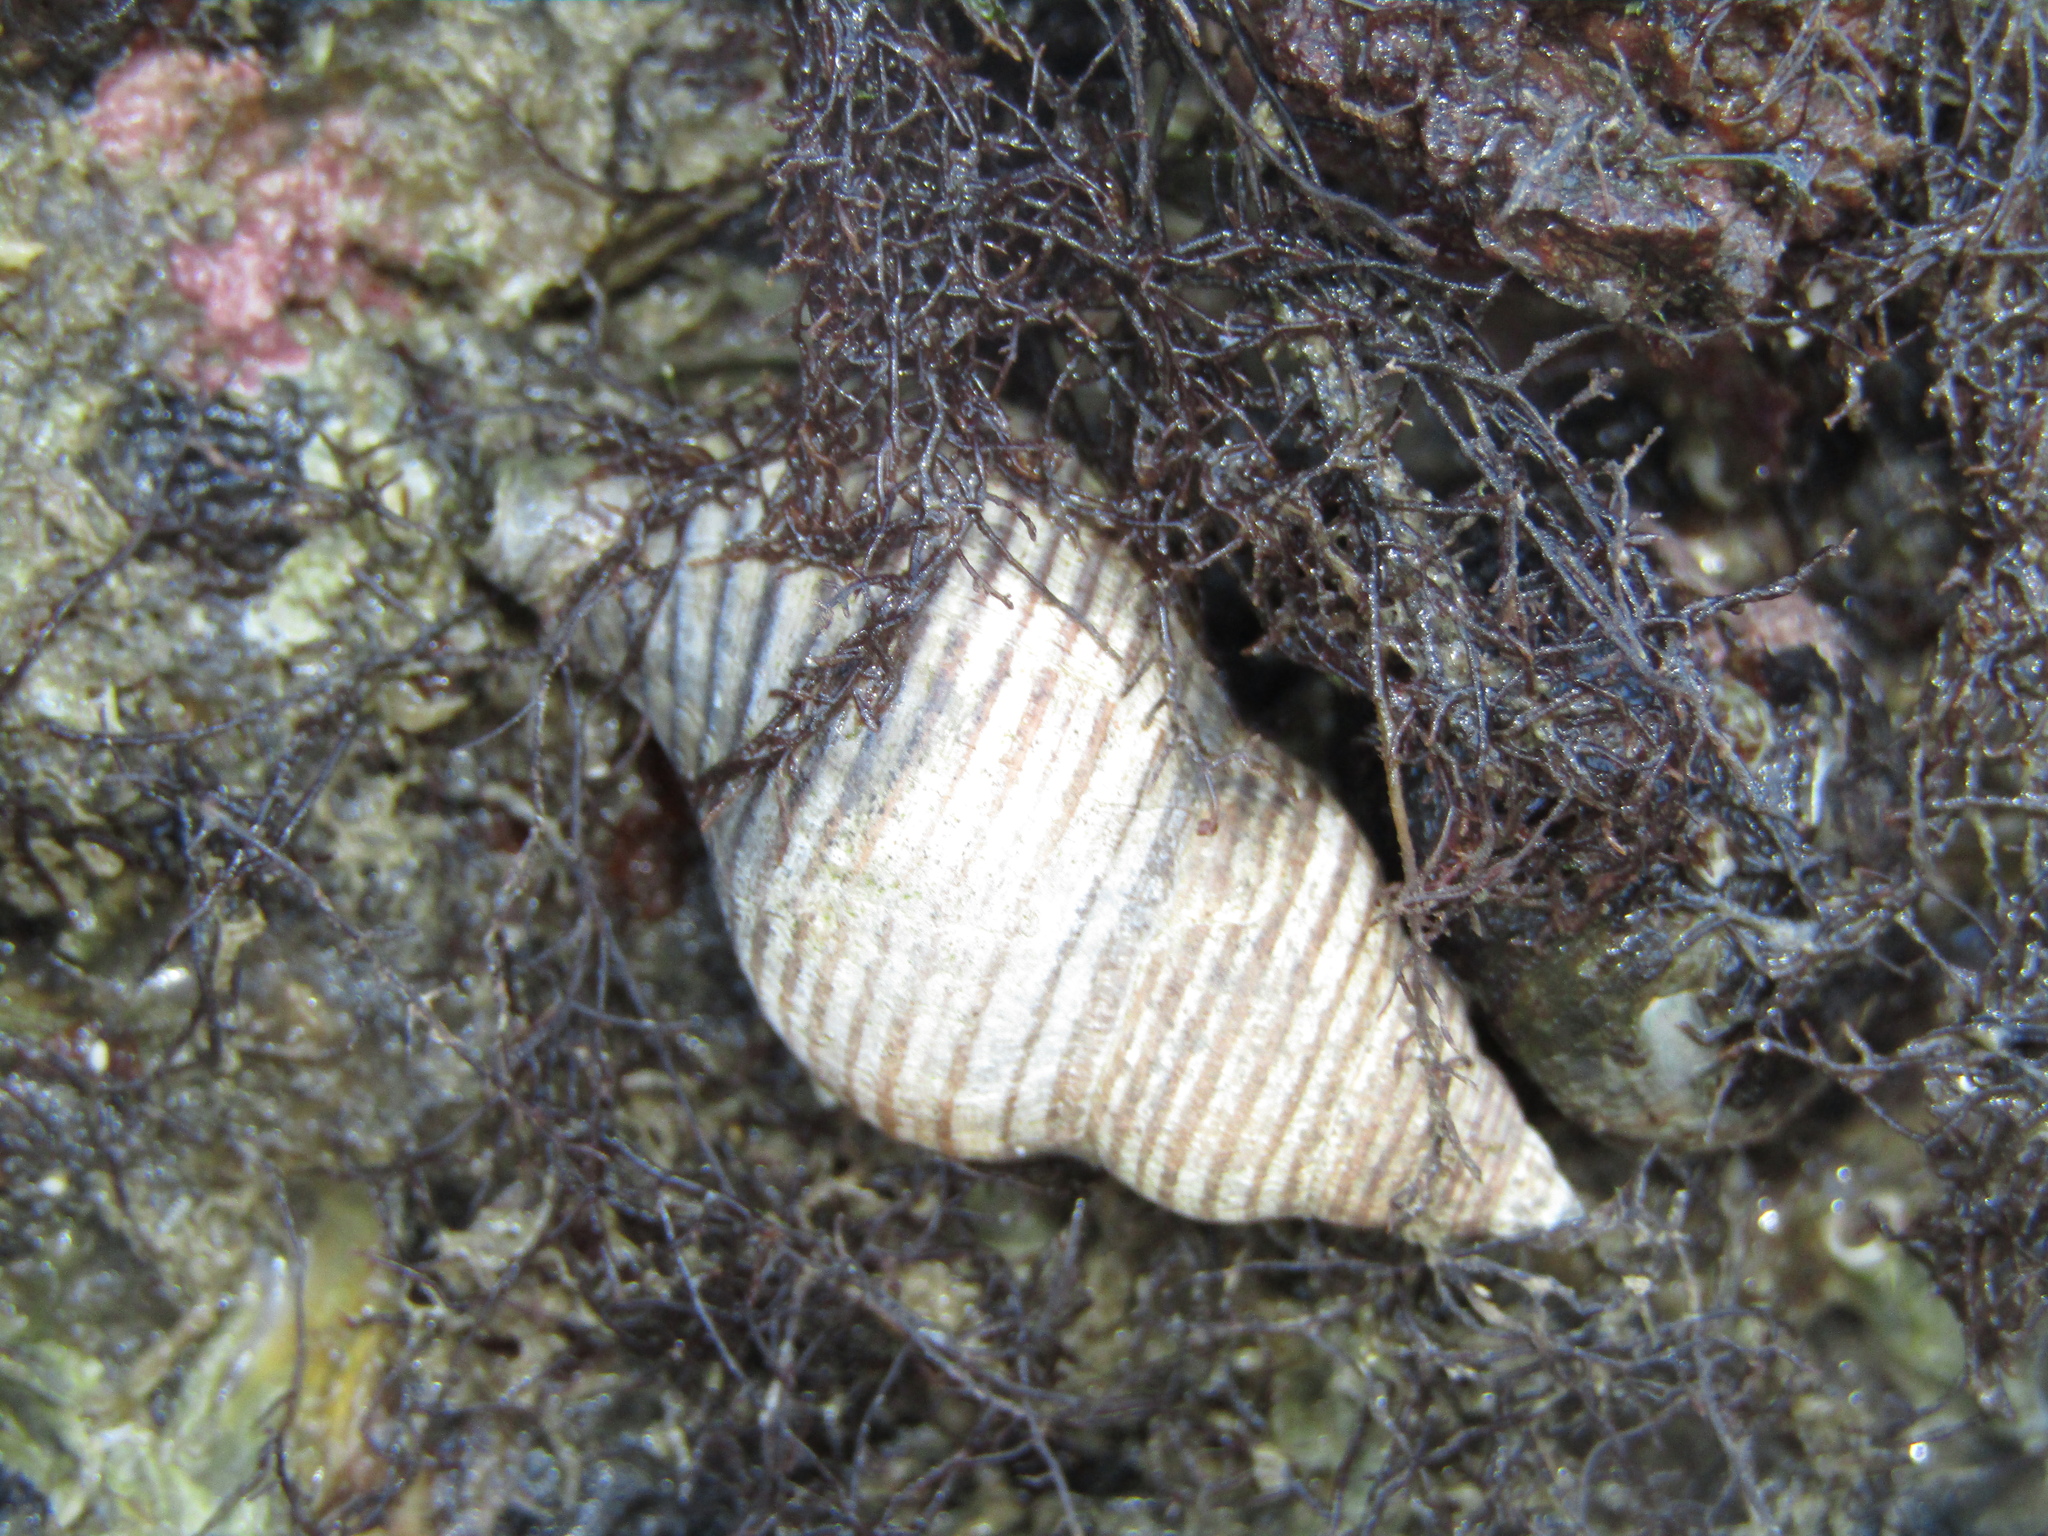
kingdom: Animalia
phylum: Mollusca
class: Gastropoda
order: Neogastropoda
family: Tudiclidae
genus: Buccinulum
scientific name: Buccinulum linea
